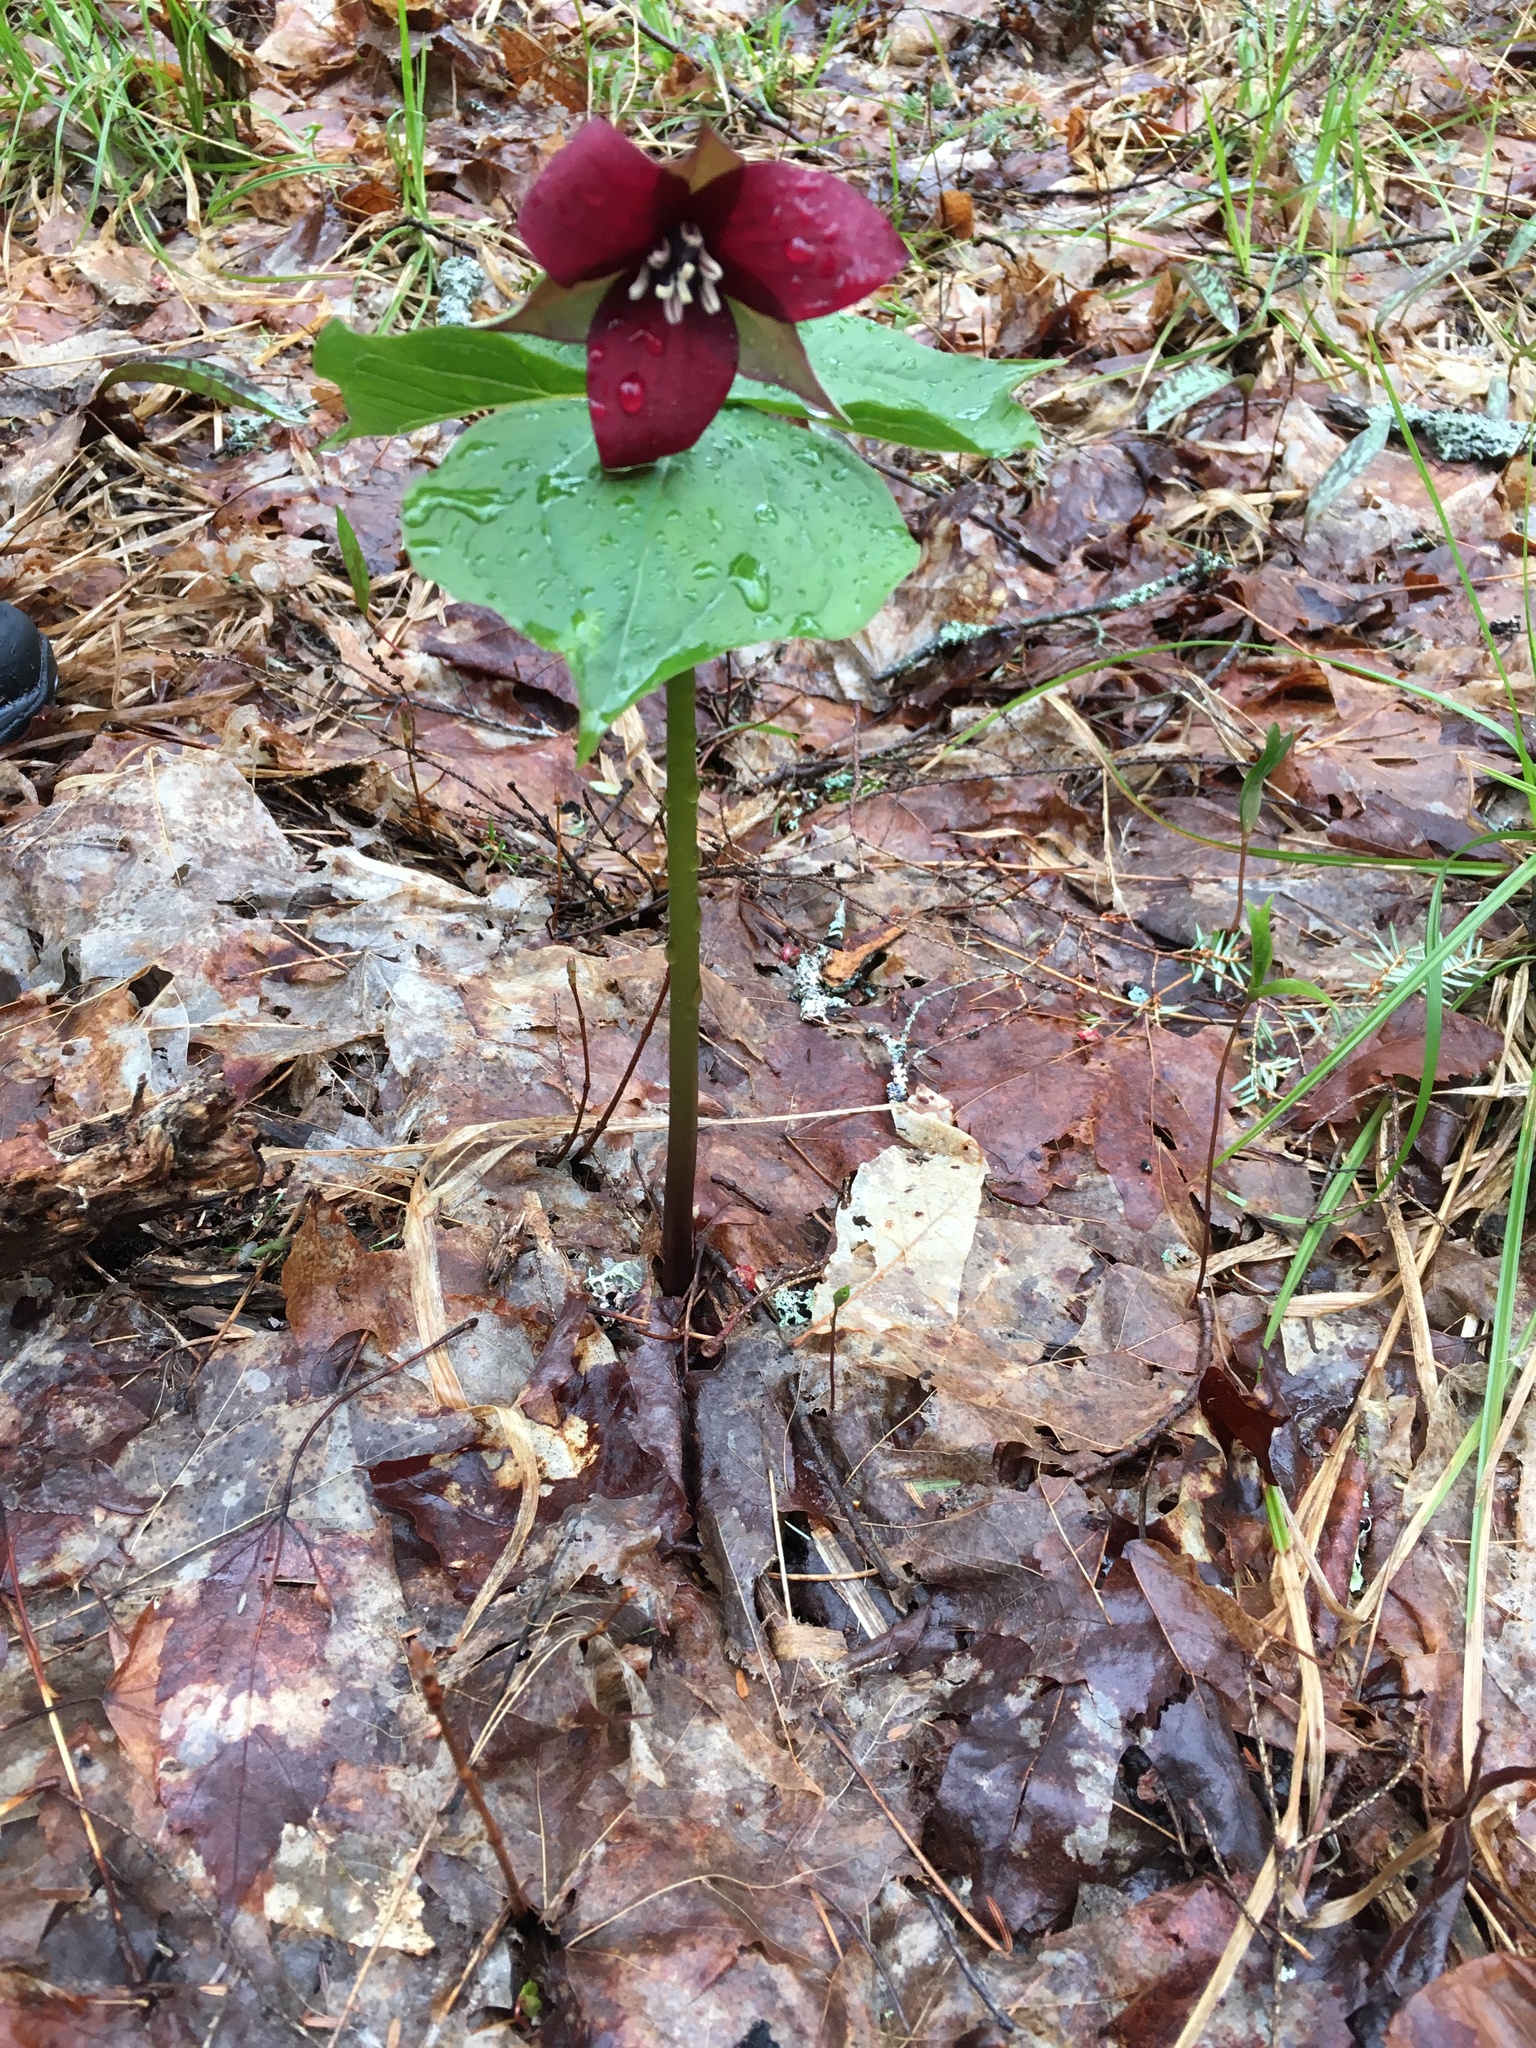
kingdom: Plantae
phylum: Tracheophyta
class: Liliopsida
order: Liliales
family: Melanthiaceae
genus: Trillium
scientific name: Trillium erectum
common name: Purple trillium
